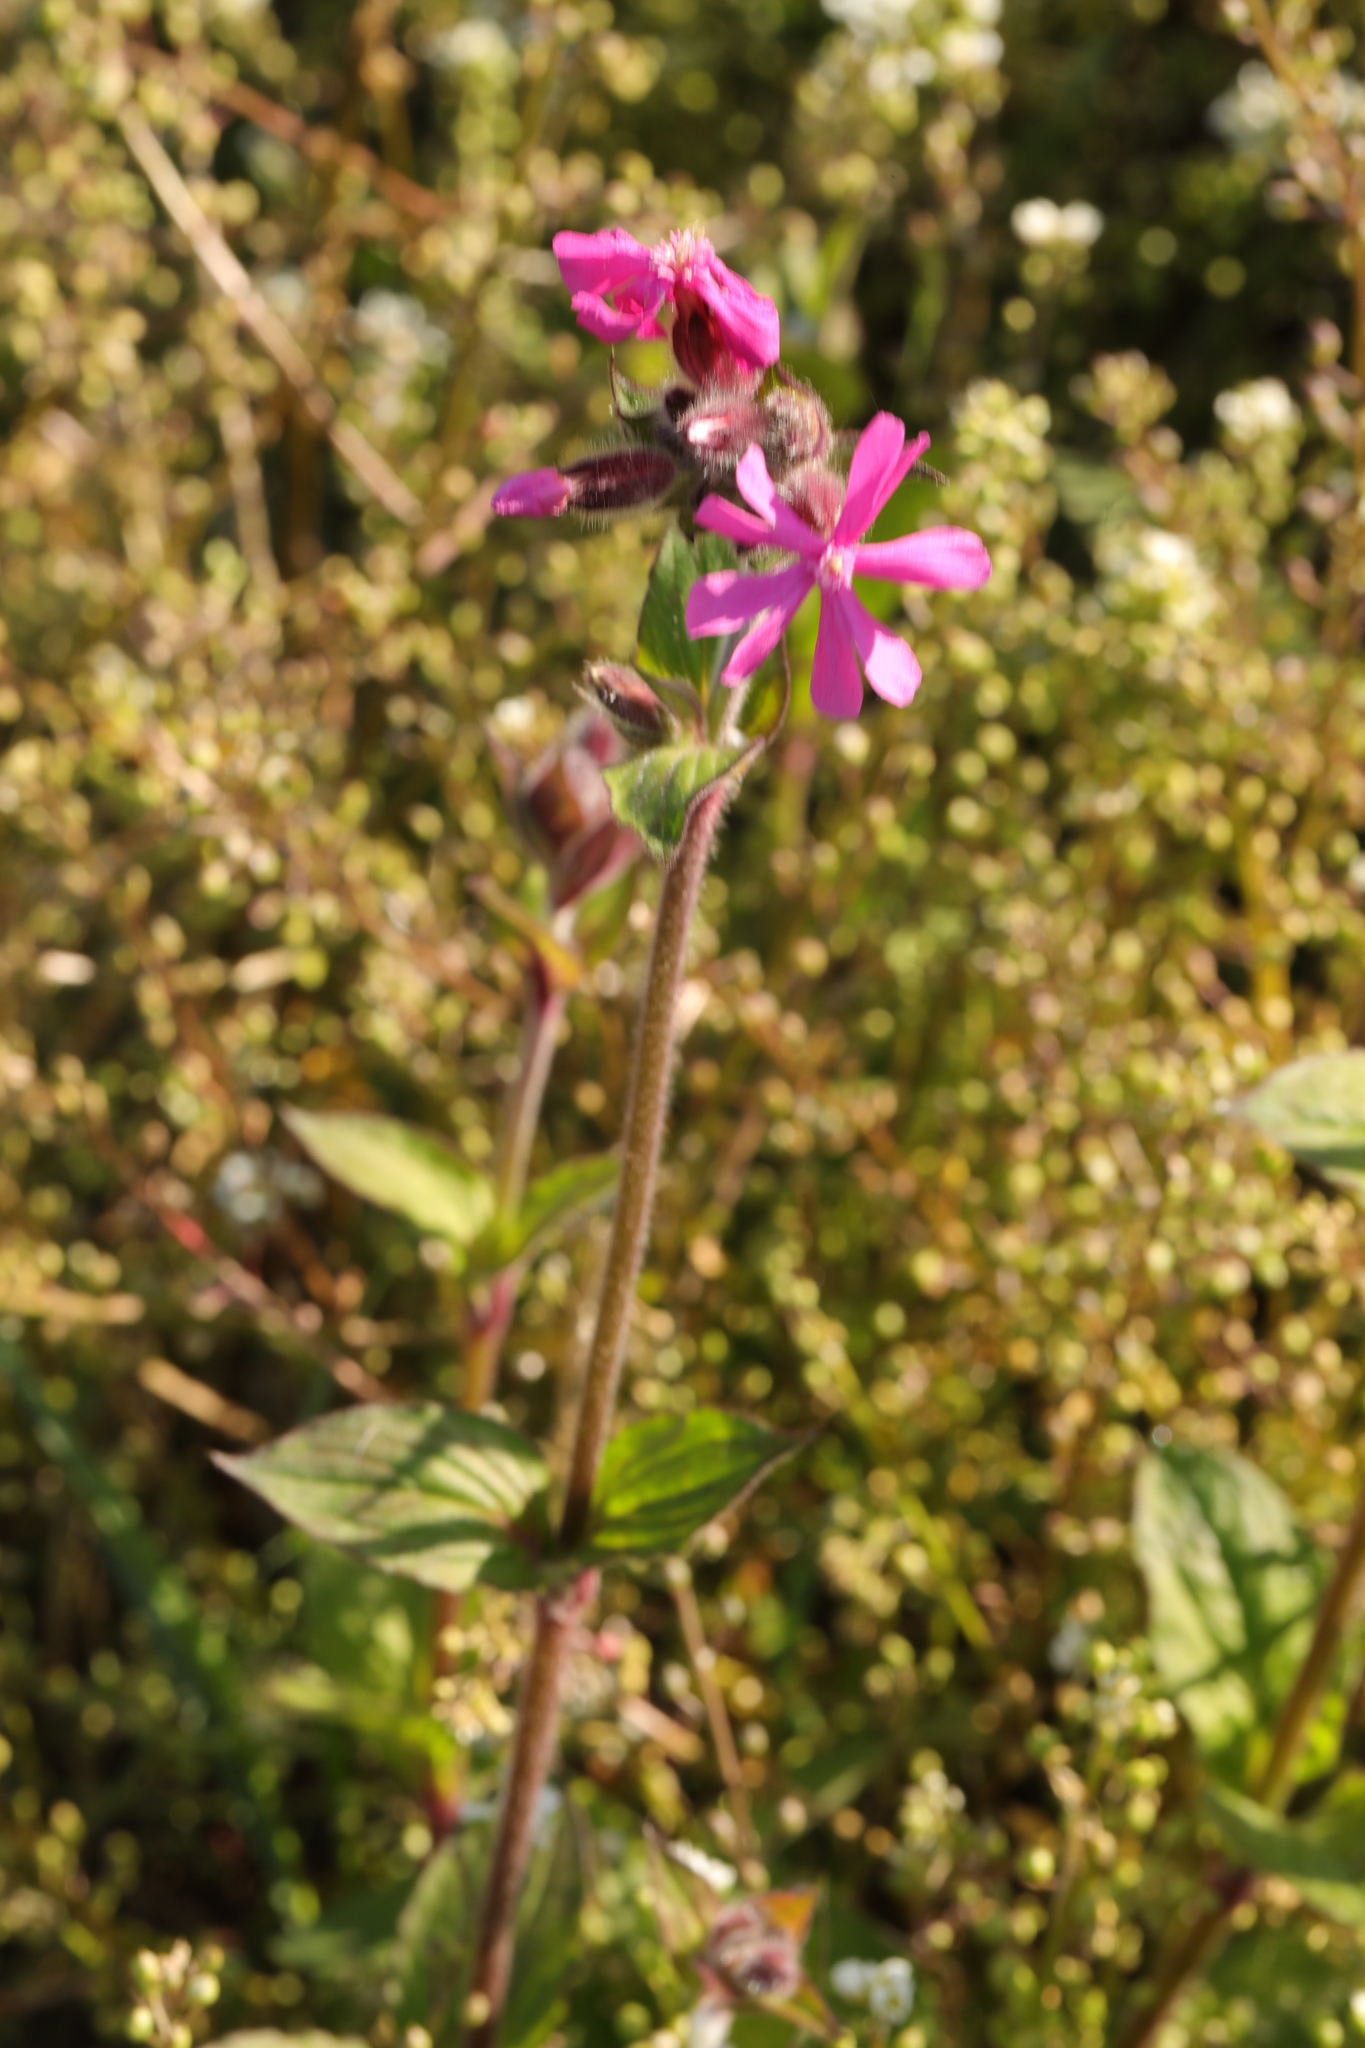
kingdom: Plantae
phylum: Tracheophyta
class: Magnoliopsida
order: Caryophyllales
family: Caryophyllaceae
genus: Silene
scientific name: Silene dioica
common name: Red campion
